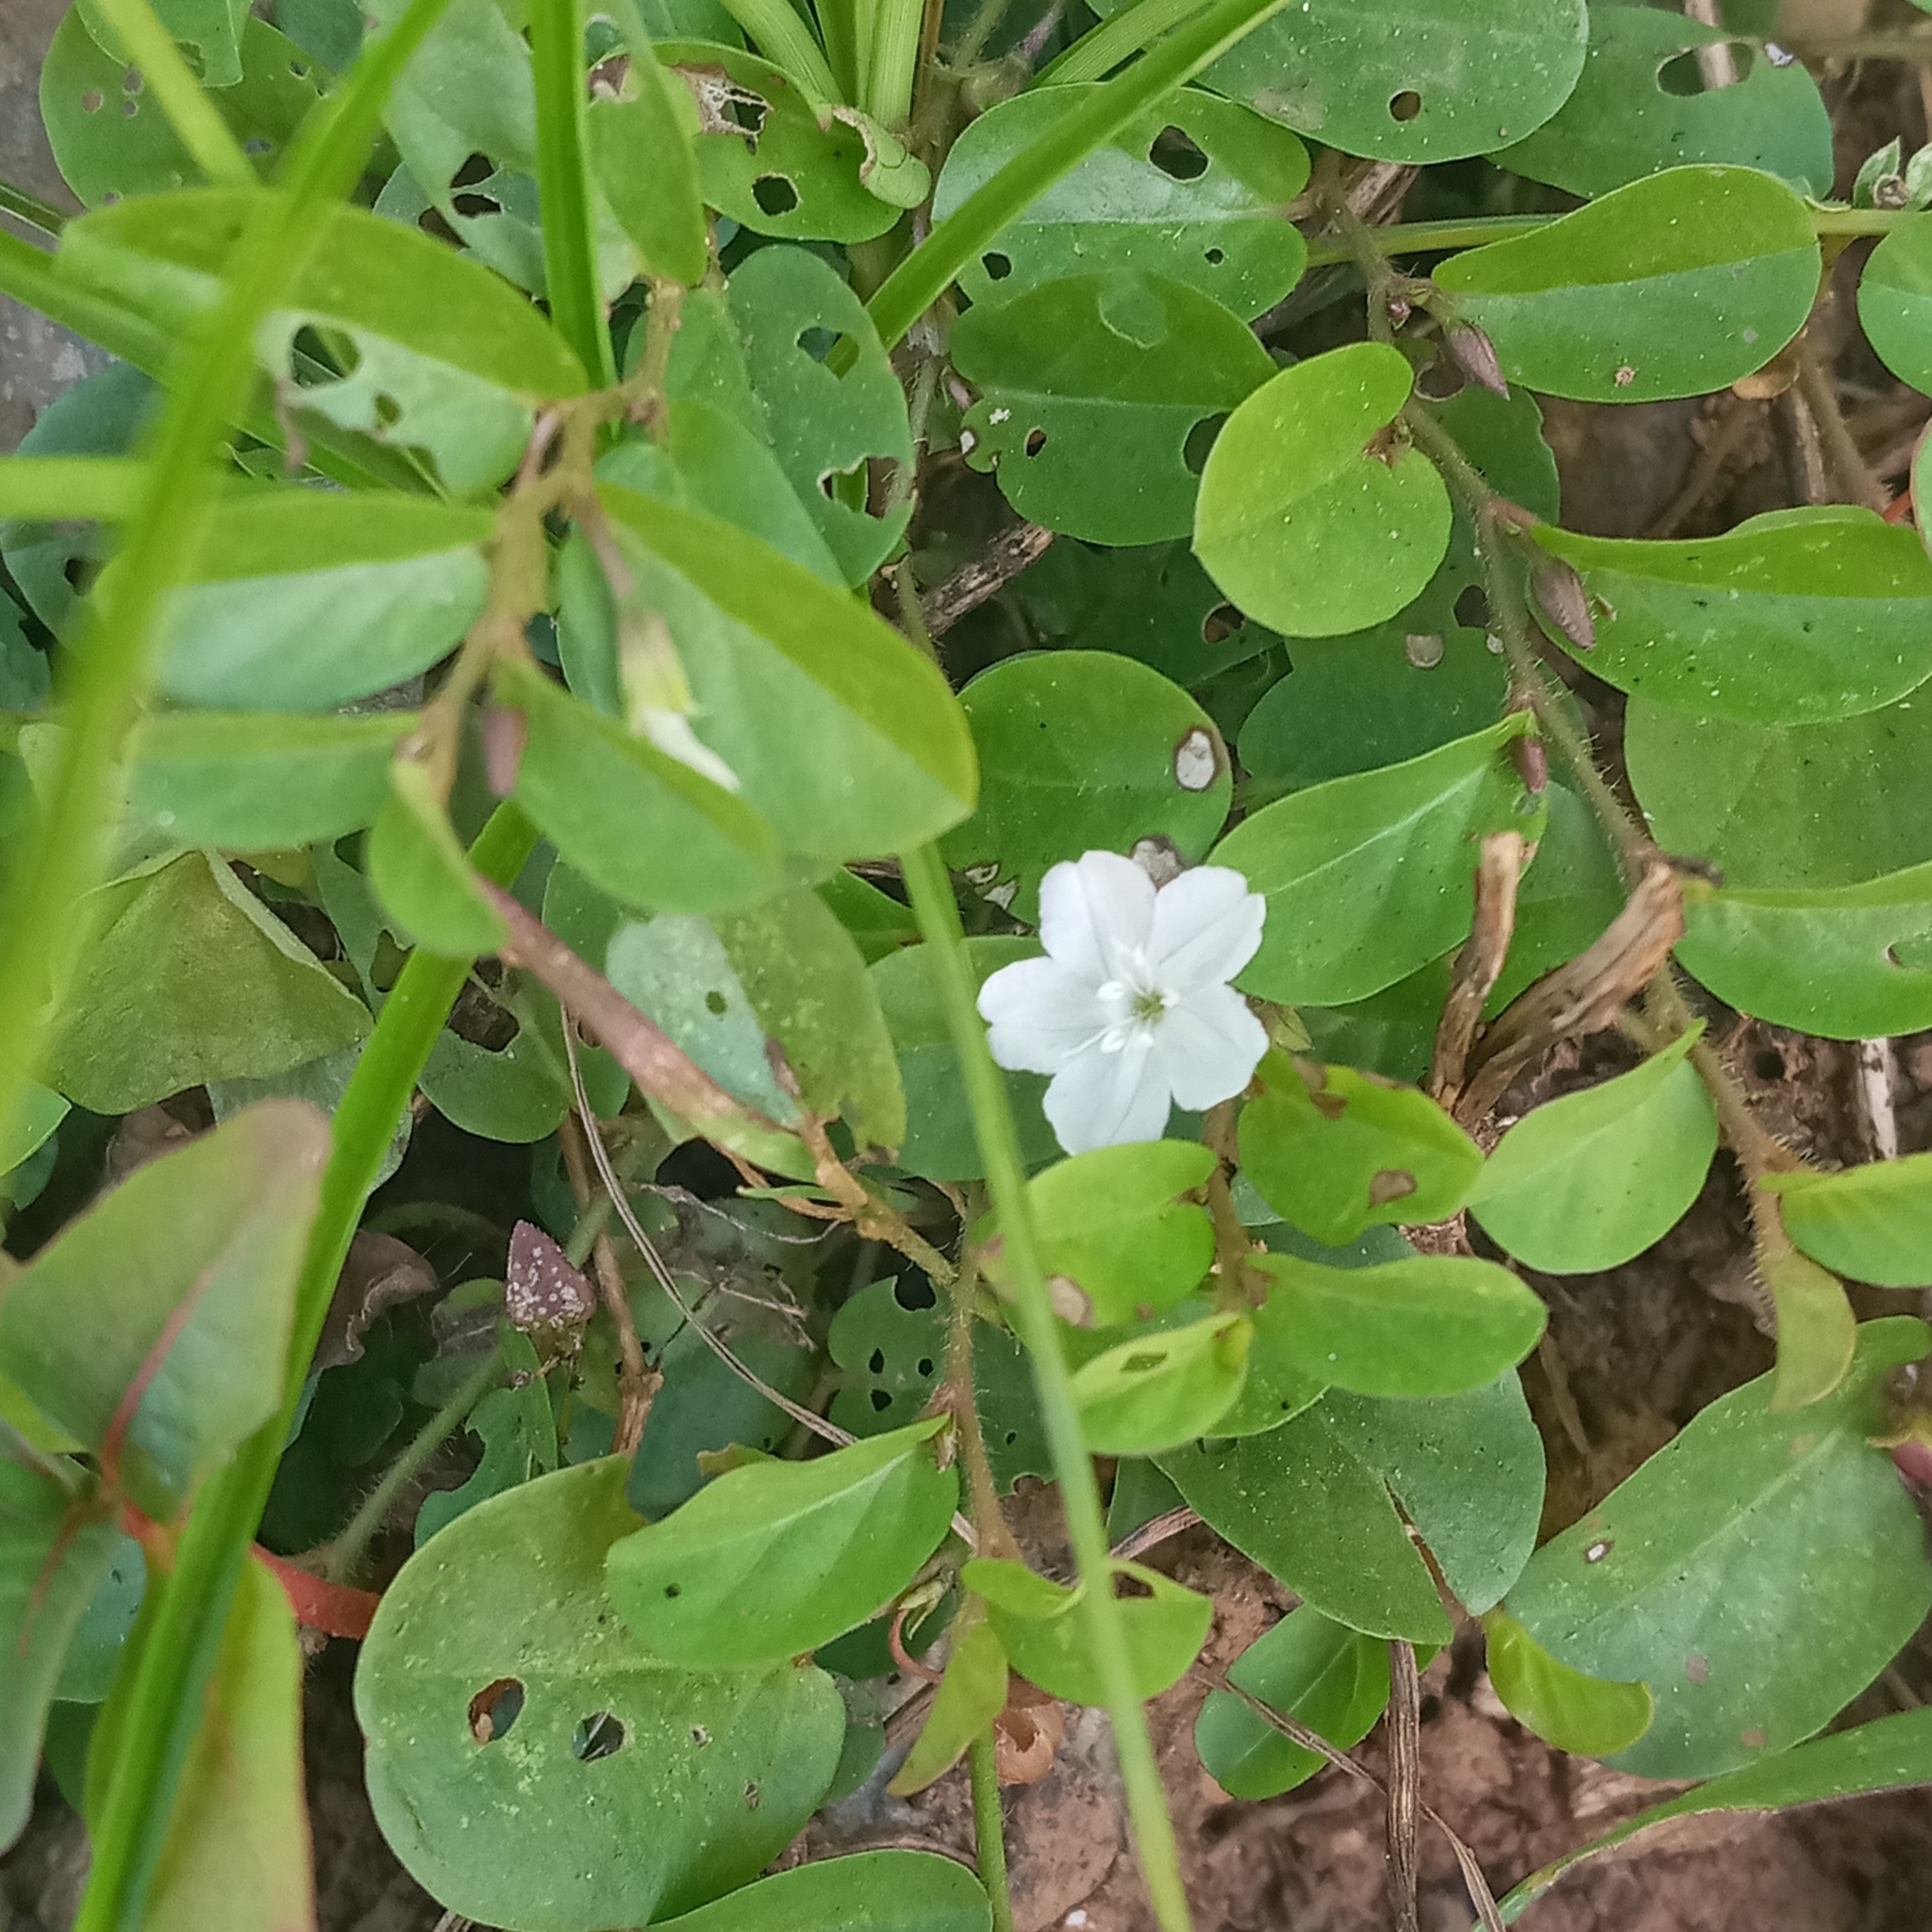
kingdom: Plantae
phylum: Tracheophyta
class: Magnoliopsida
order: Solanales
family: Convolvulaceae
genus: Evolvulus
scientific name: Evolvulus nummularius
